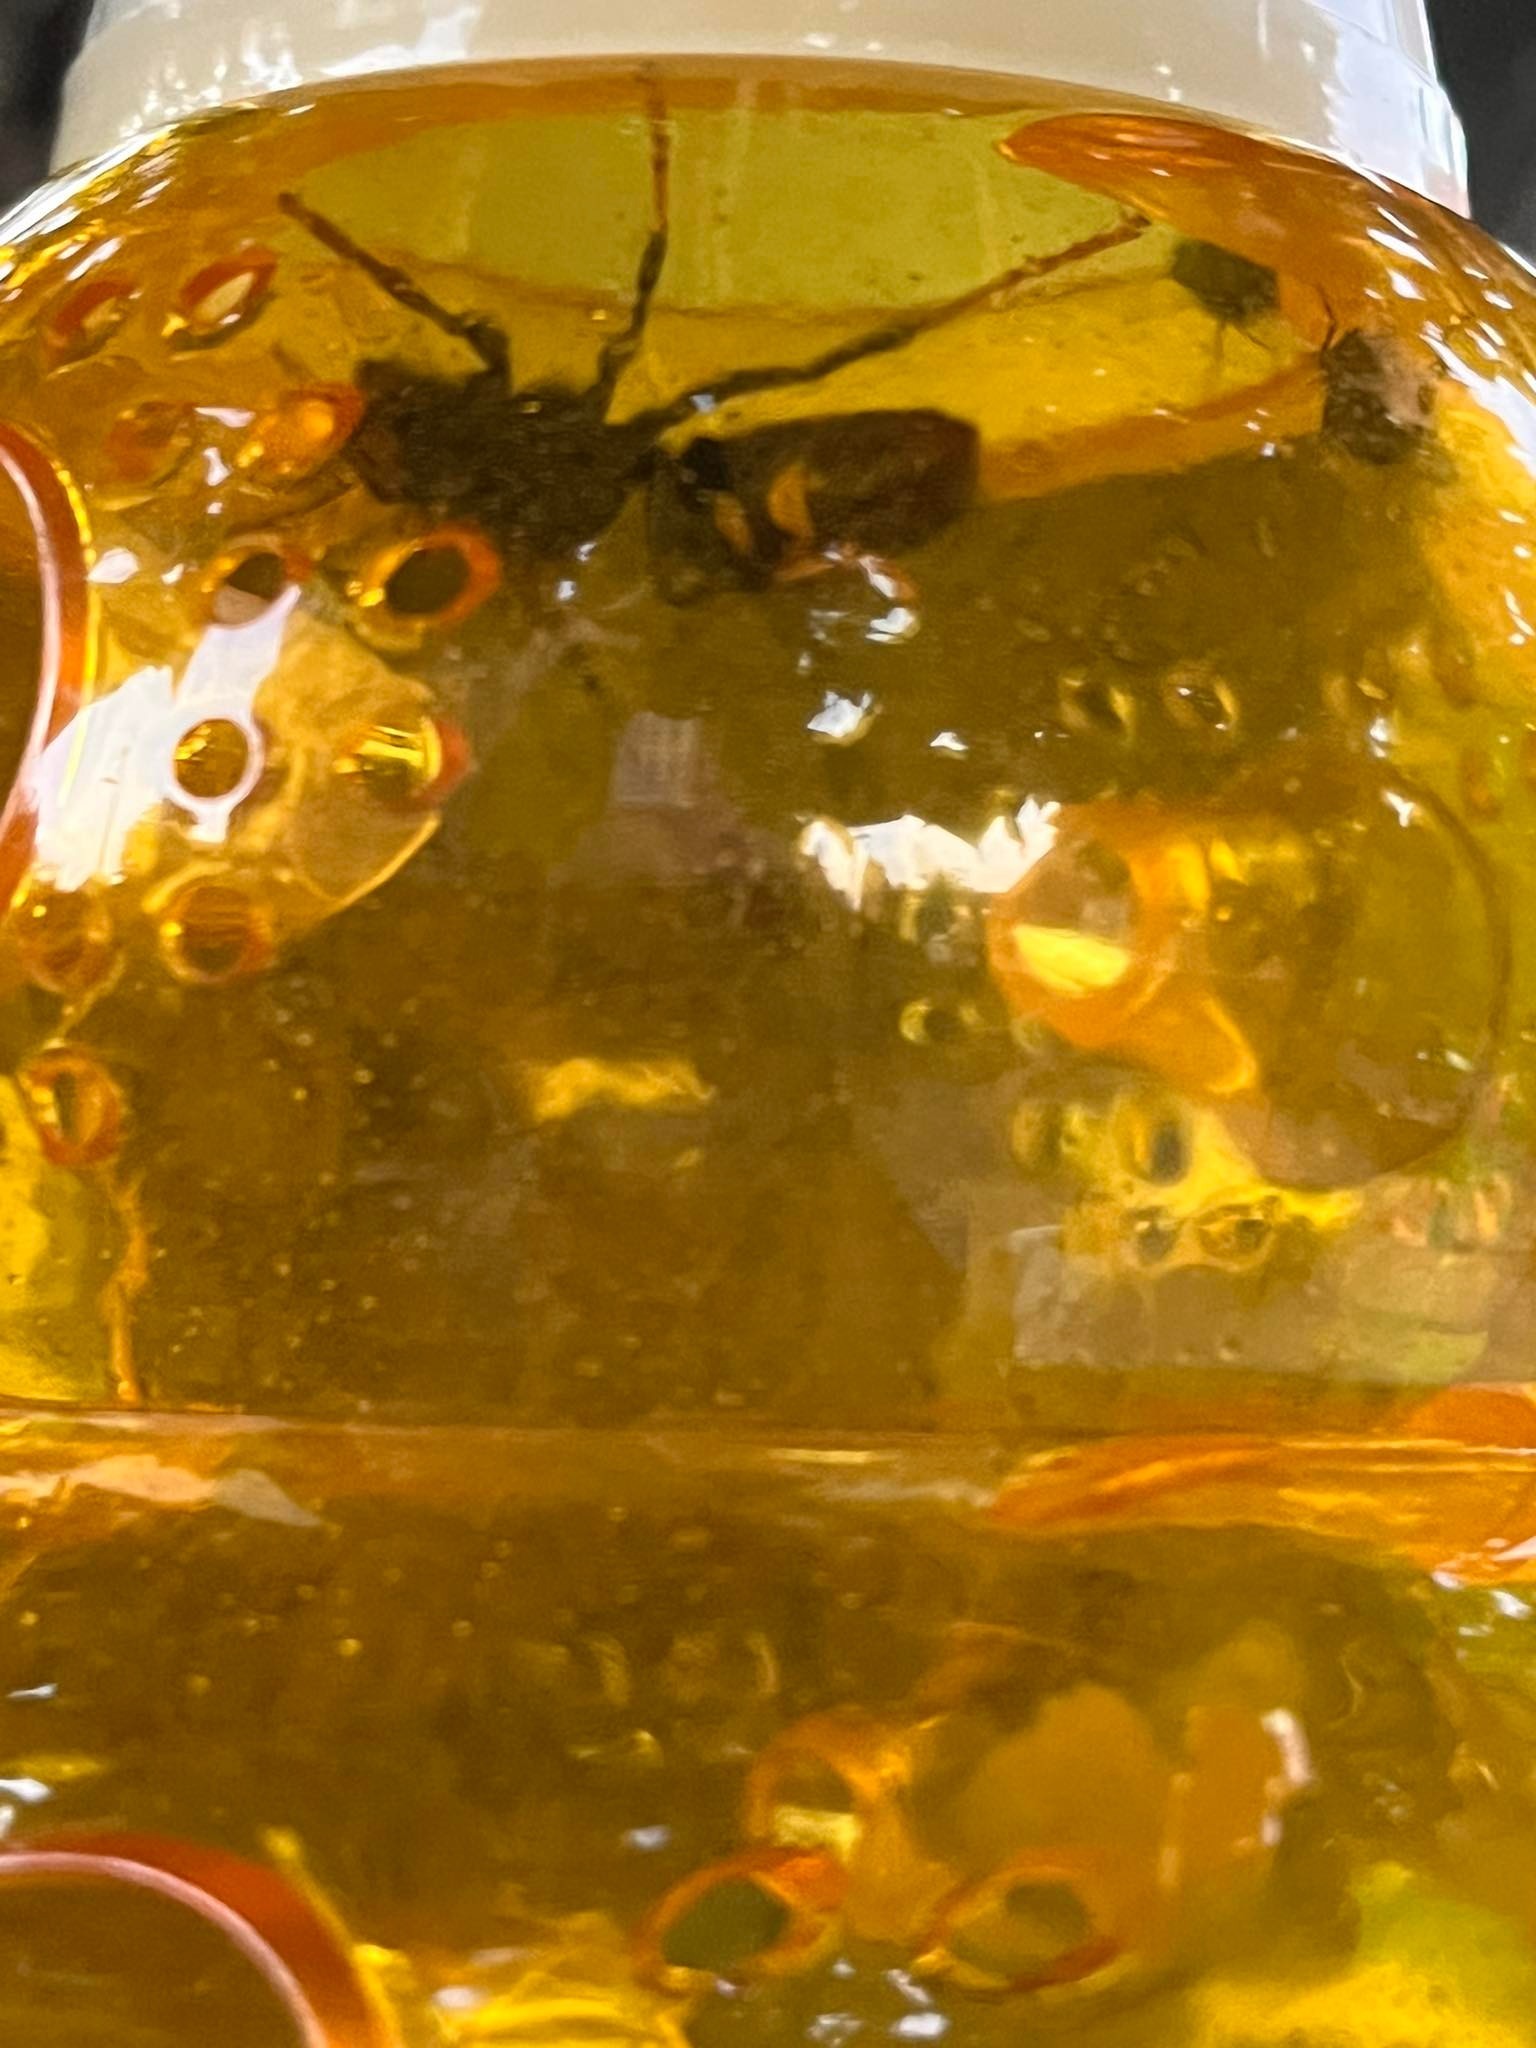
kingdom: Animalia
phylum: Arthropoda
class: Insecta
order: Hymenoptera
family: Vespidae
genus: Vespa
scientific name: Vespa velutina
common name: Asian hornet
